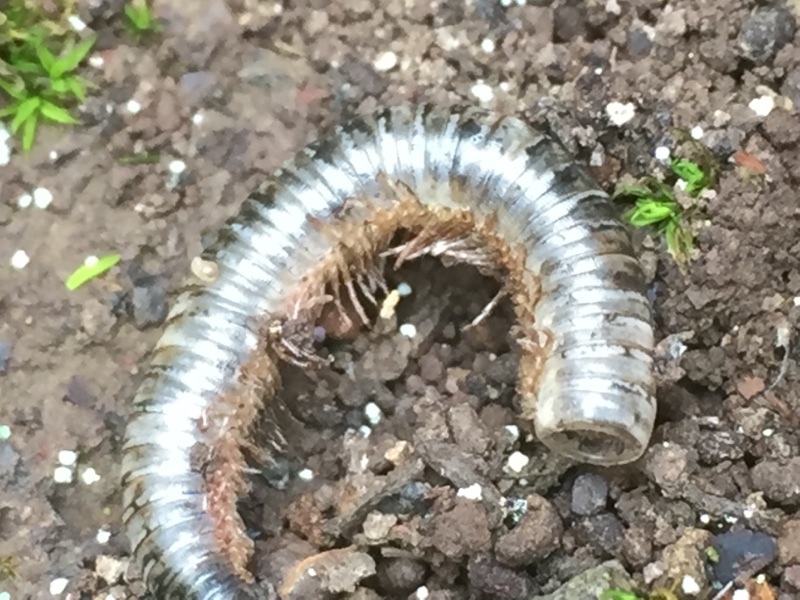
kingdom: Animalia
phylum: Arthropoda
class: Diplopoda
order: Julida
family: Julidae
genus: Ommatoiulus
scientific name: Ommatoiulus moreleti
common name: Portuguese millipede
